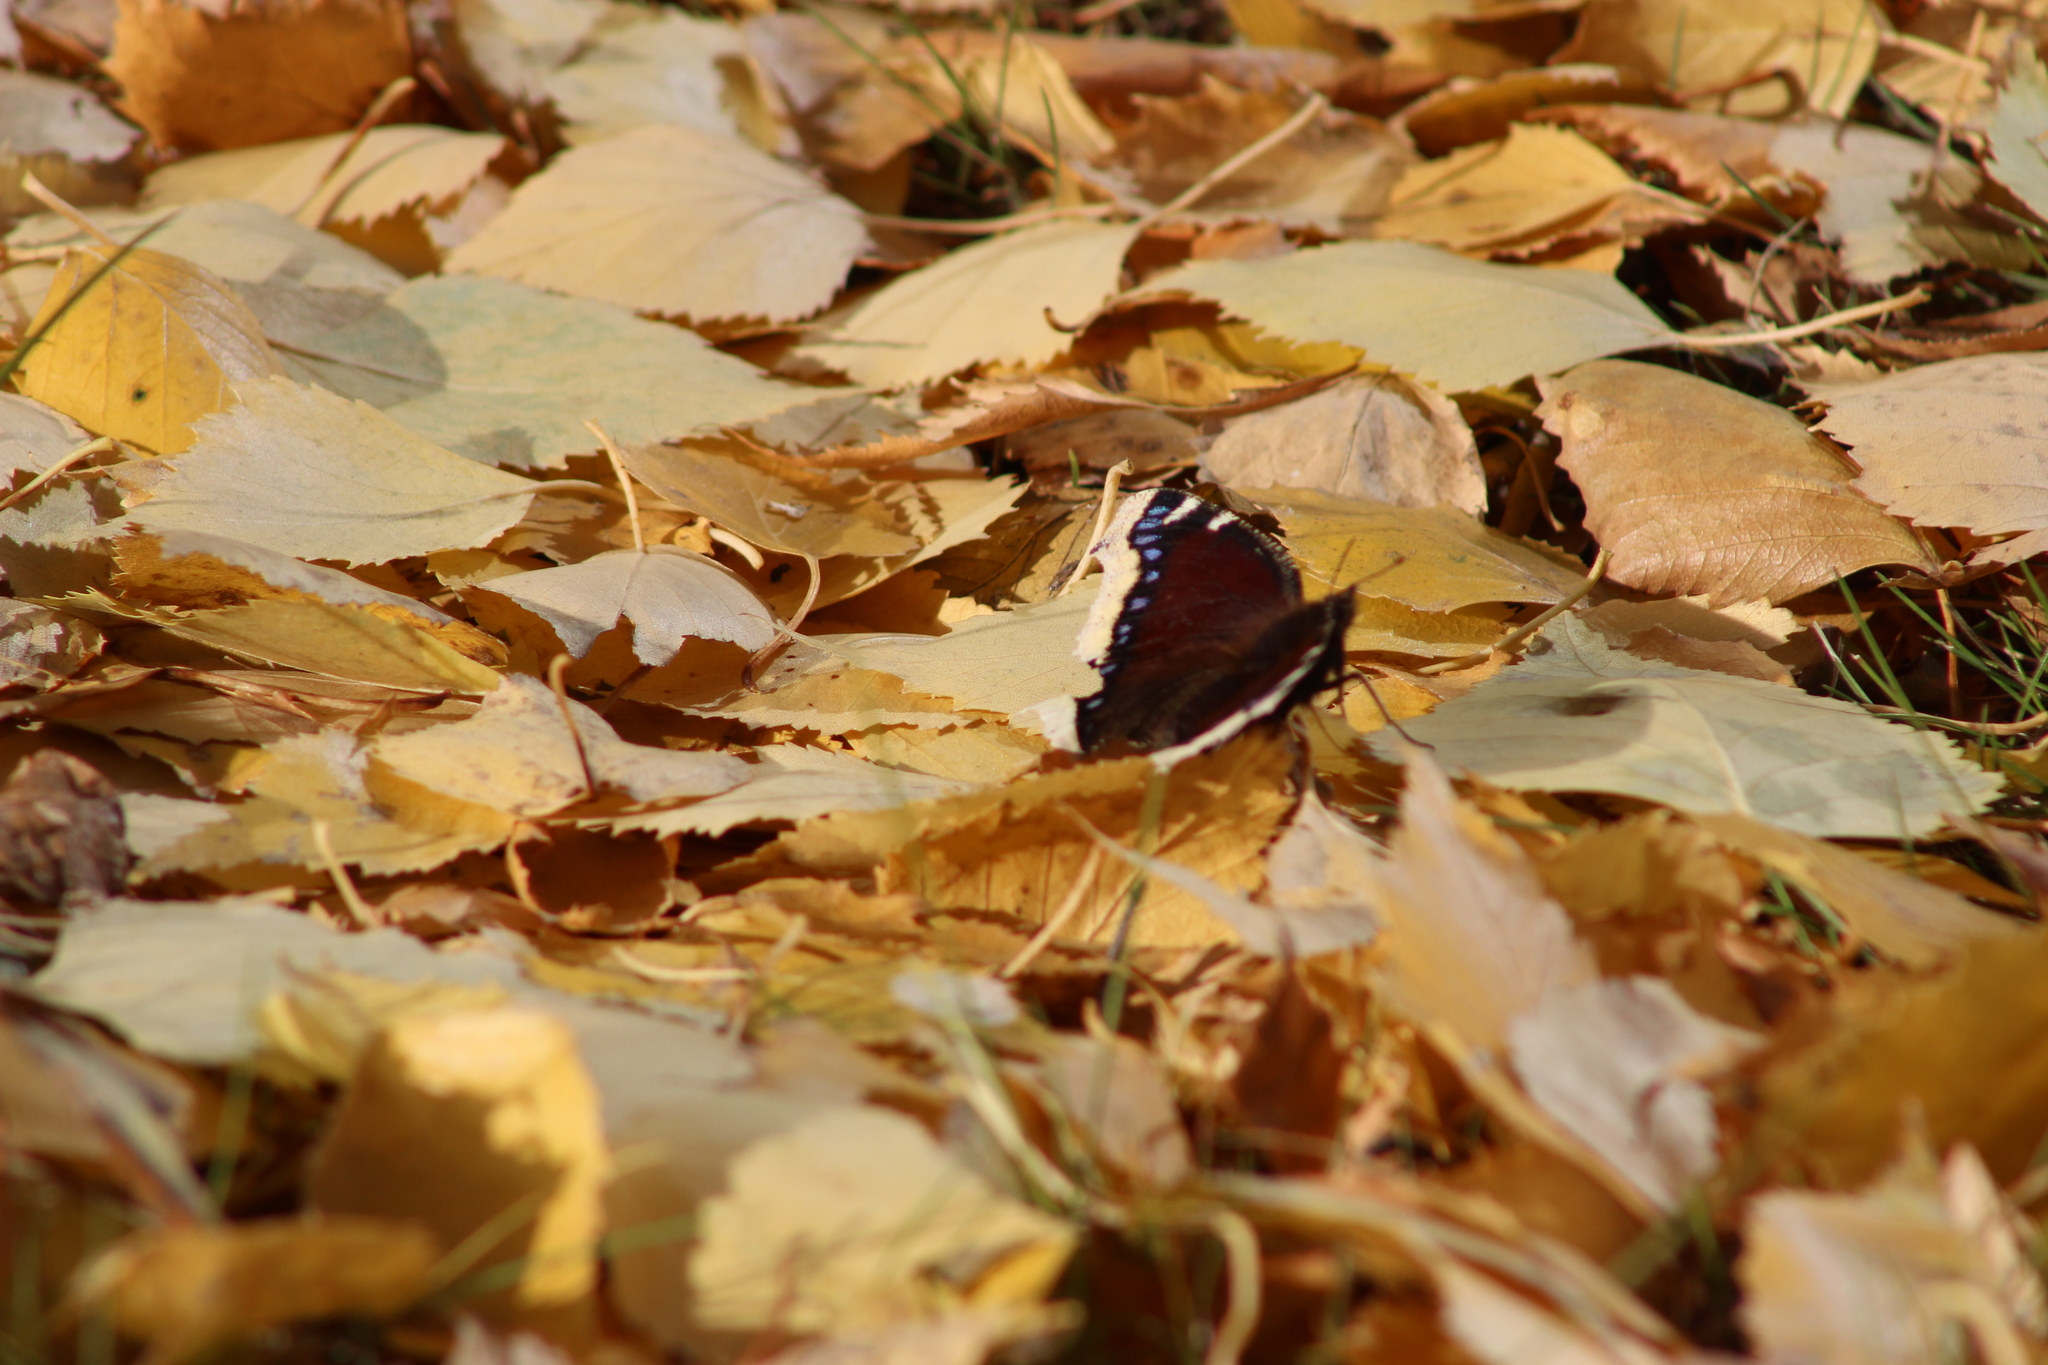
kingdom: Animalia
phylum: Arthropoda
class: Insecta
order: Lepidoptera
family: Nymphalidae
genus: Nymphalis
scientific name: Nymphalis antiopa
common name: Camberwell beauty
